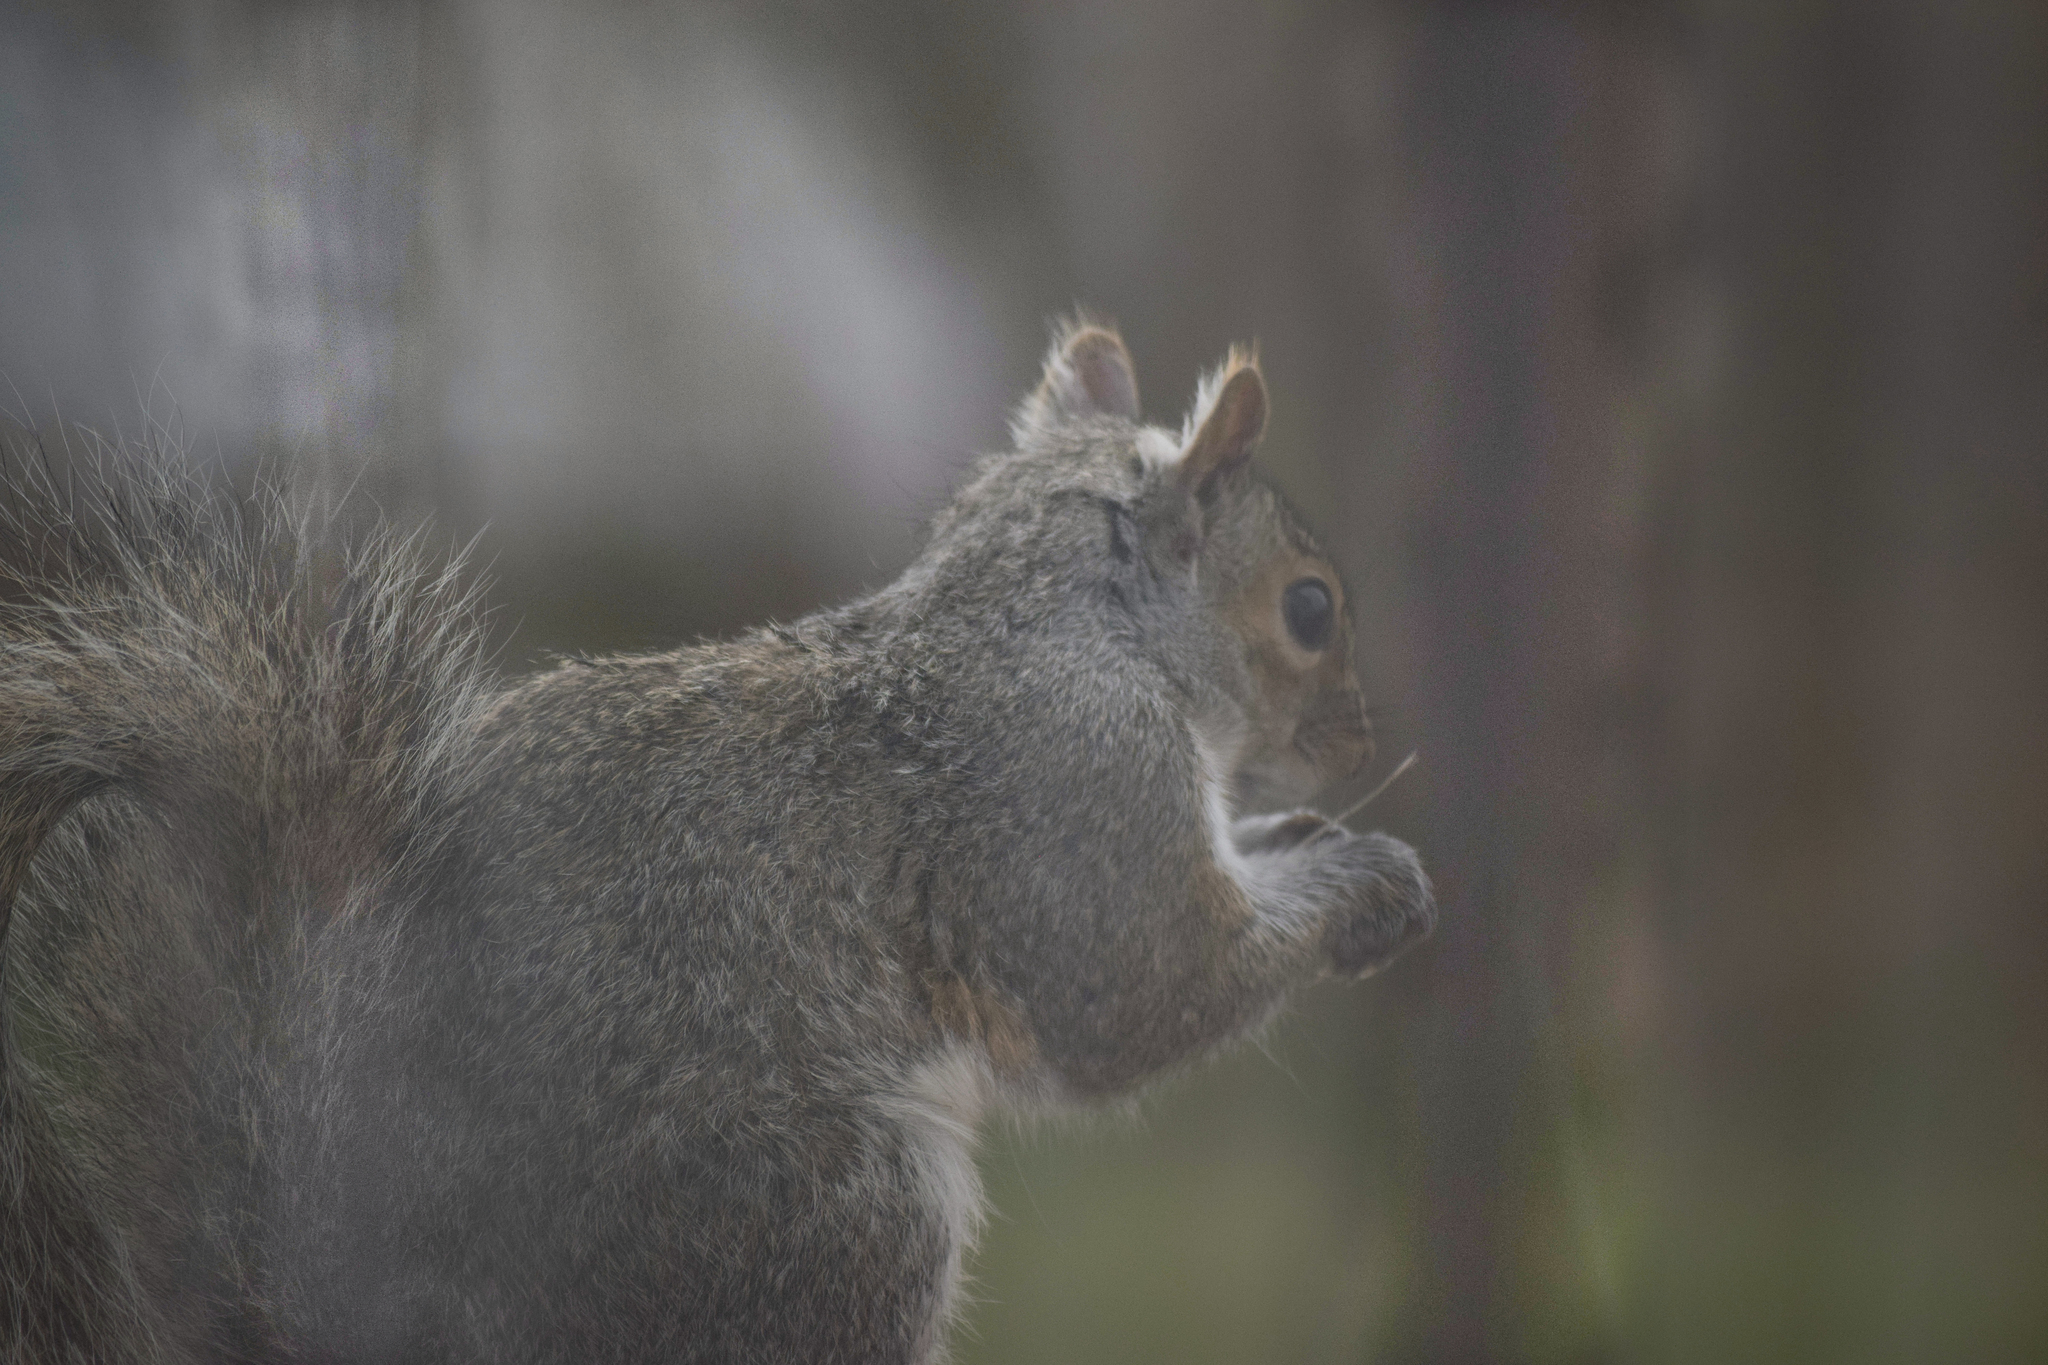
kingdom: Animalia
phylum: Chordata
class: Mammalia
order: Rodentia
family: Sciuridae
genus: Sciurus
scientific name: Sciurus carolinensis
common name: Eastern gray squirrel
